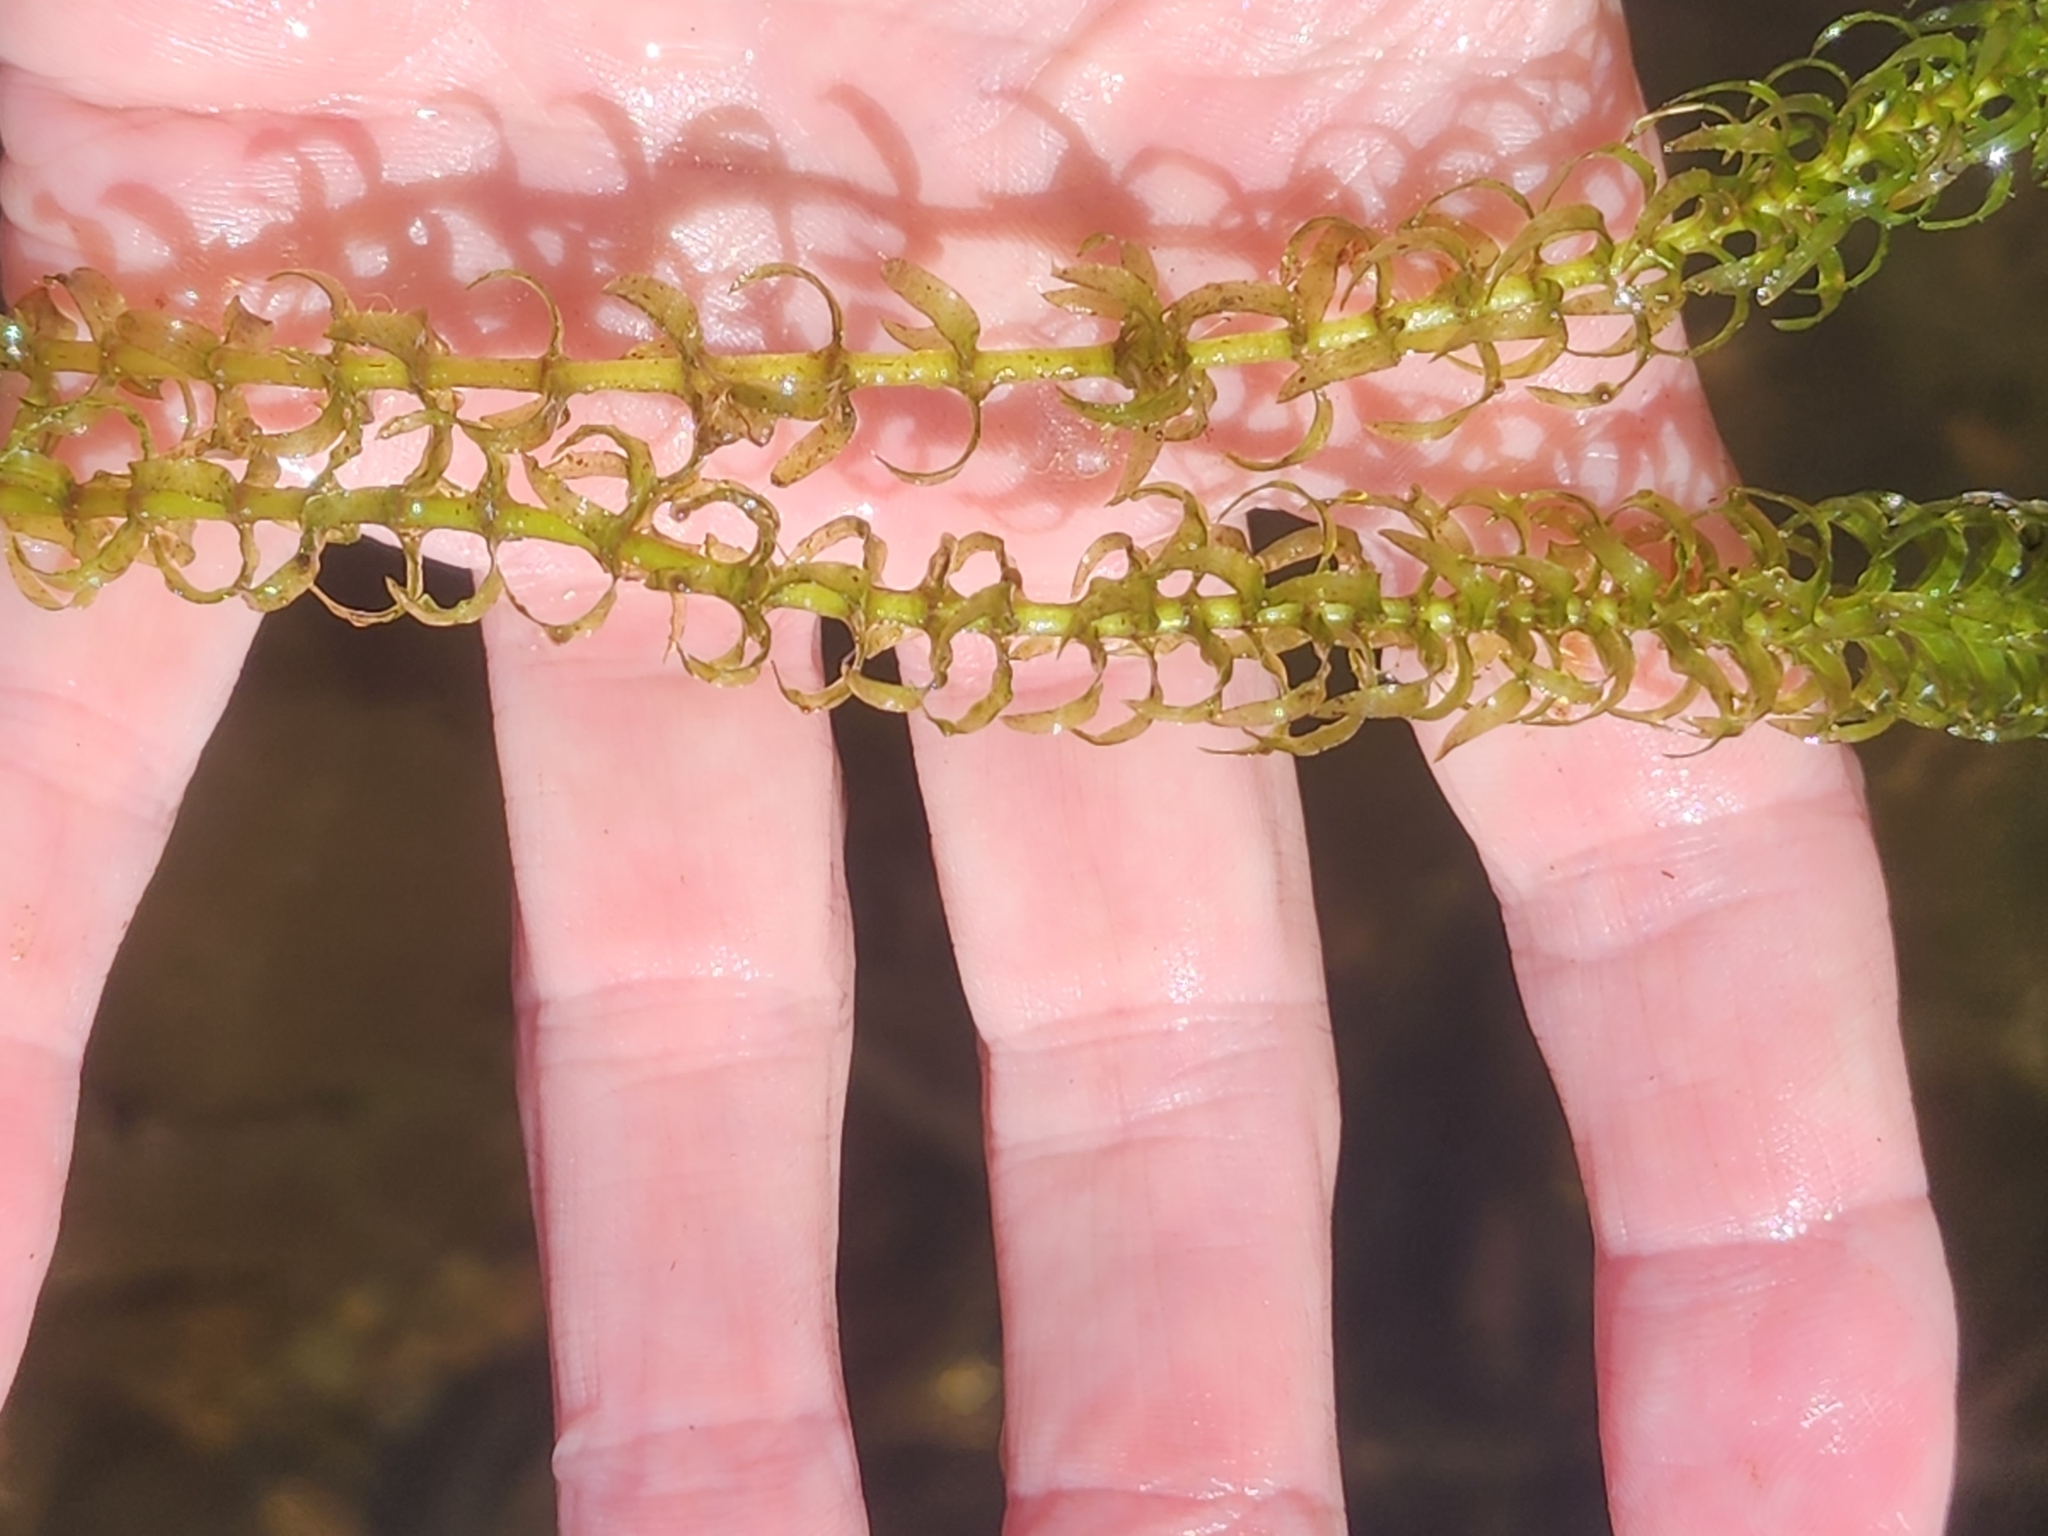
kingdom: Plantae
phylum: Tracheophyta
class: Liliopsida
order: Alismatales
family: Hydrocharitaceae
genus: Elodea
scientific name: Elodea canadensis
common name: Canadian waterweed
